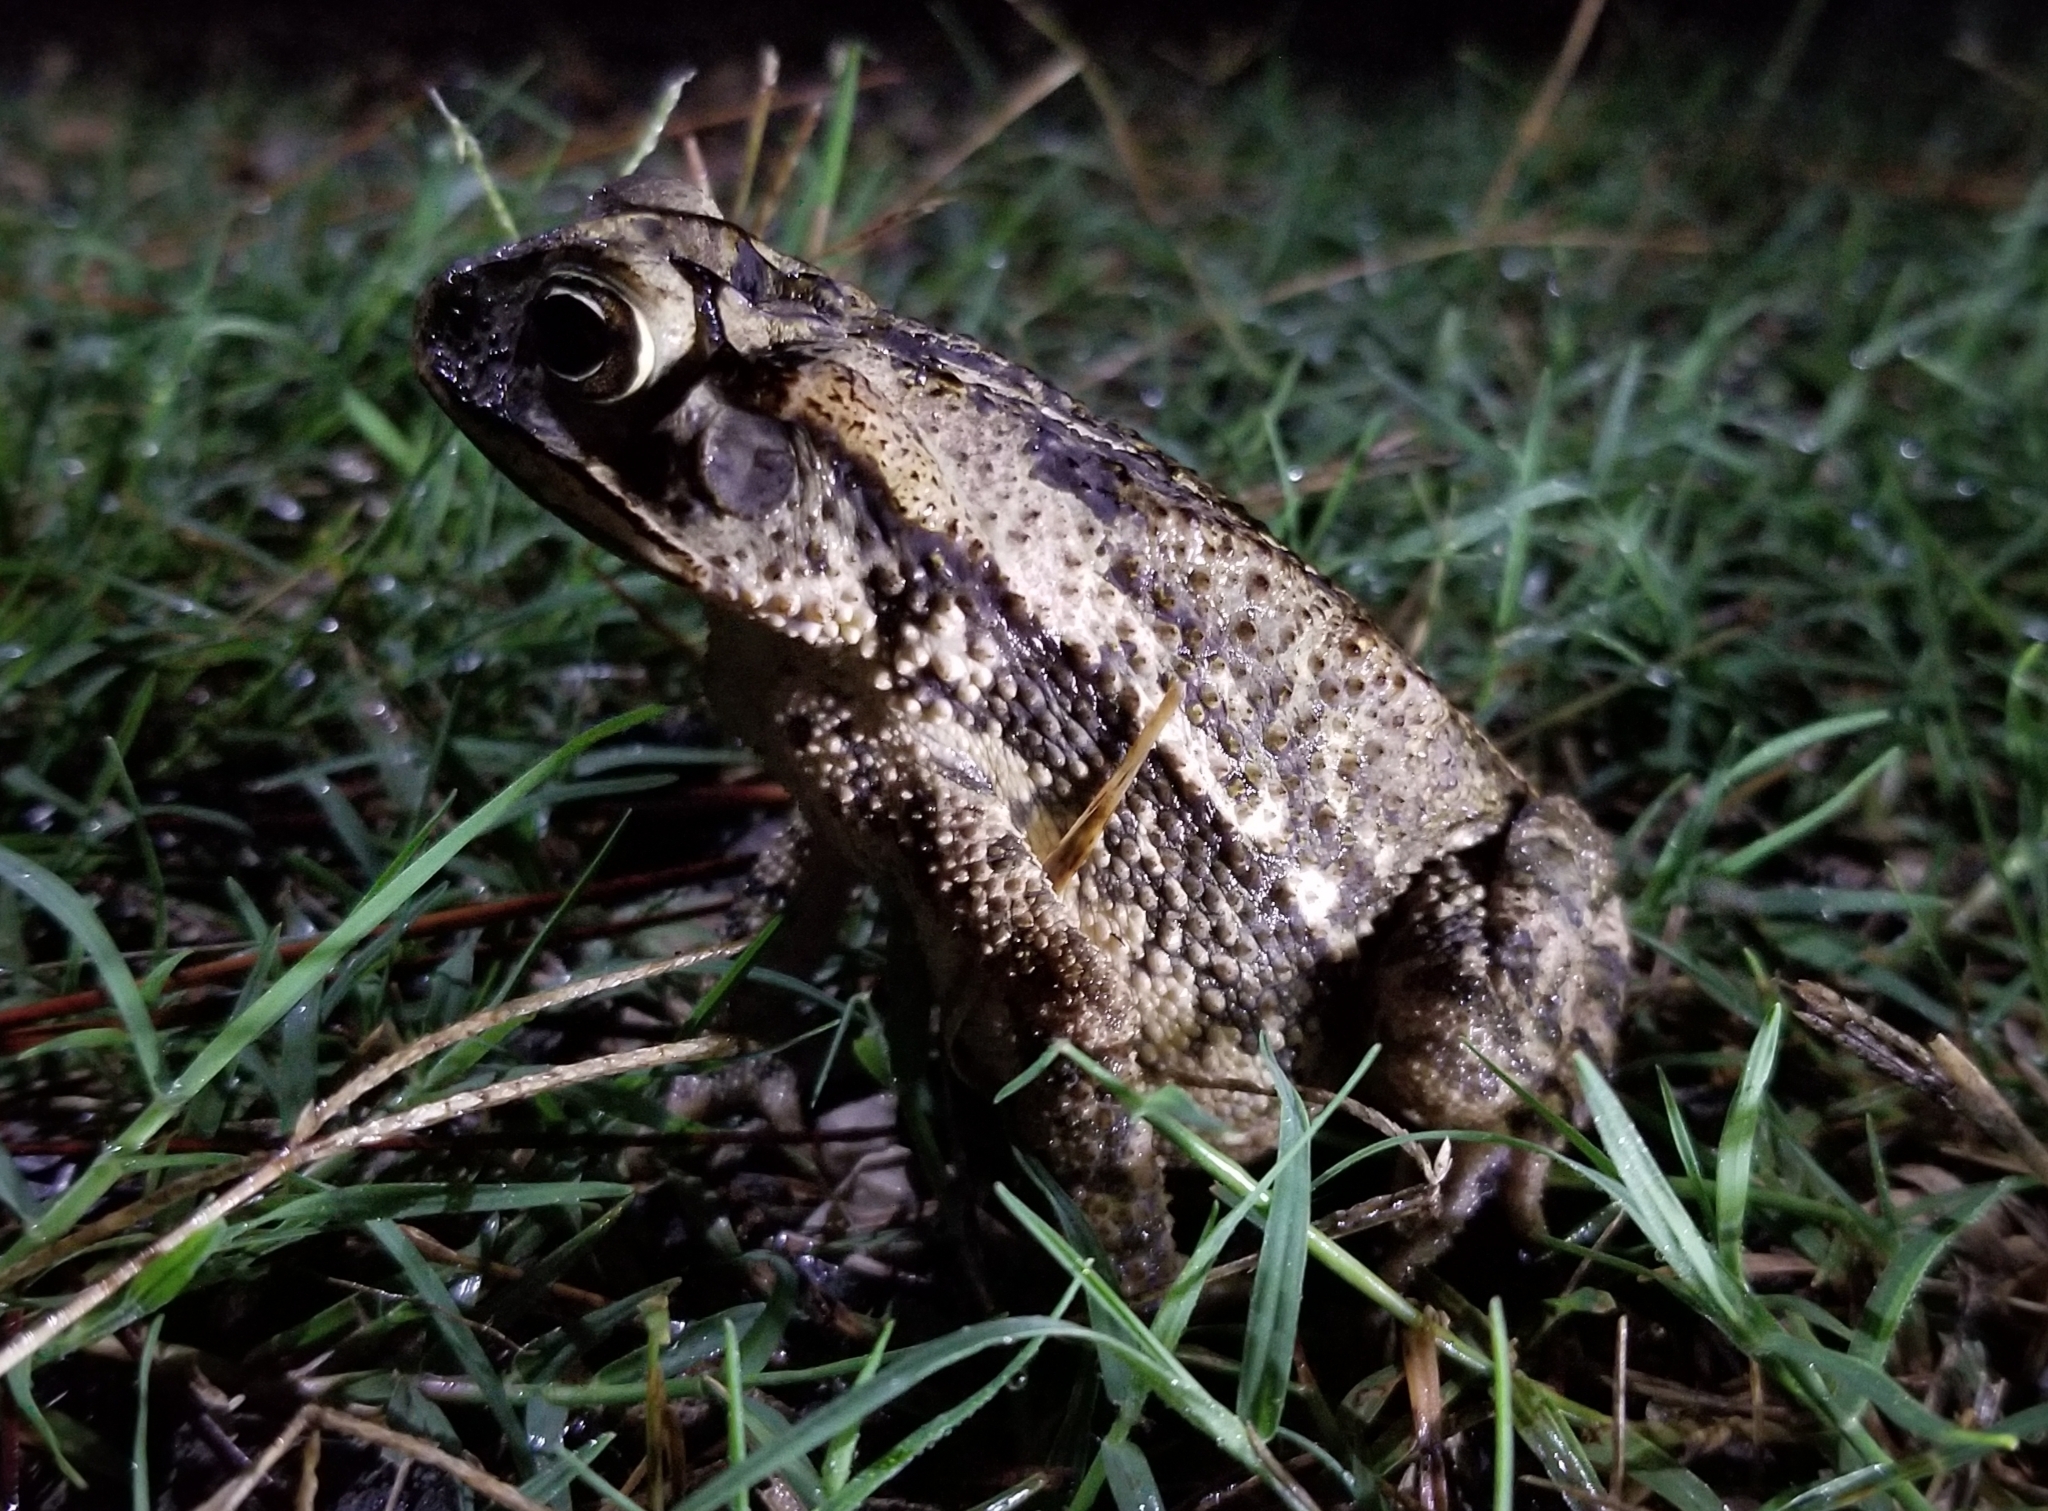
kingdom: Animalia
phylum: Chordata
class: Amphibia
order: Anura
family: Bufonidae
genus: Incilius
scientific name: Incilius nebulifer
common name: Gulf coast toad
